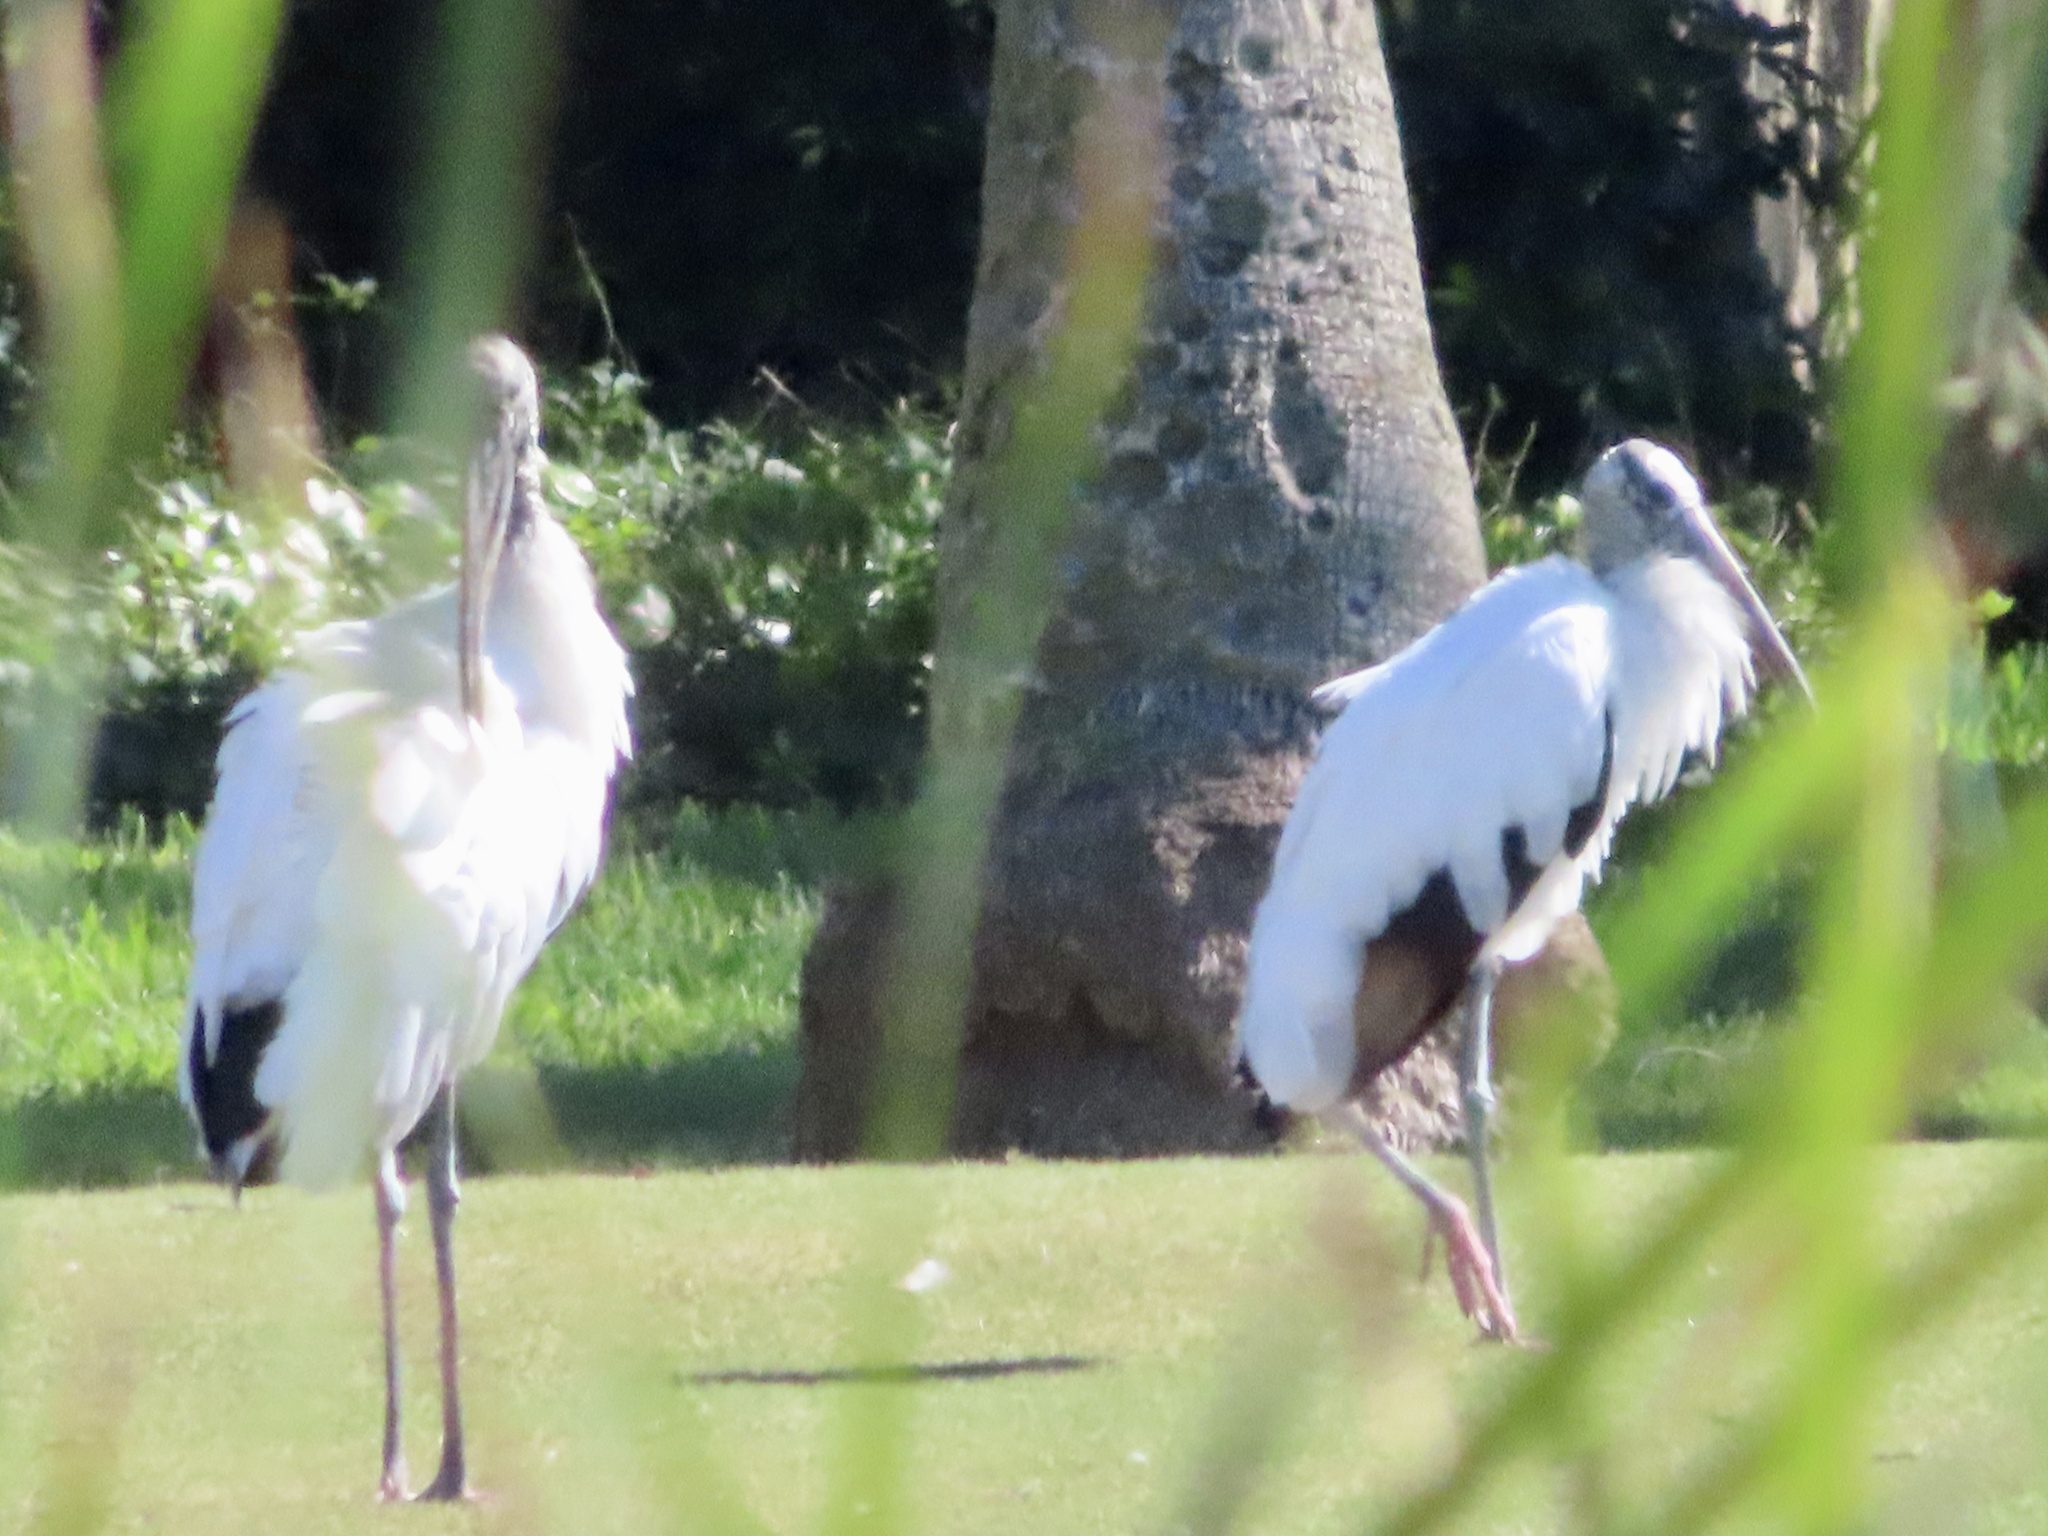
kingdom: Animalia
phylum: Chordata
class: Aves
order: Ciconiiformes
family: Ciconiidae
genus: Mycteria
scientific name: Mycteria americana
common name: Wood stork
